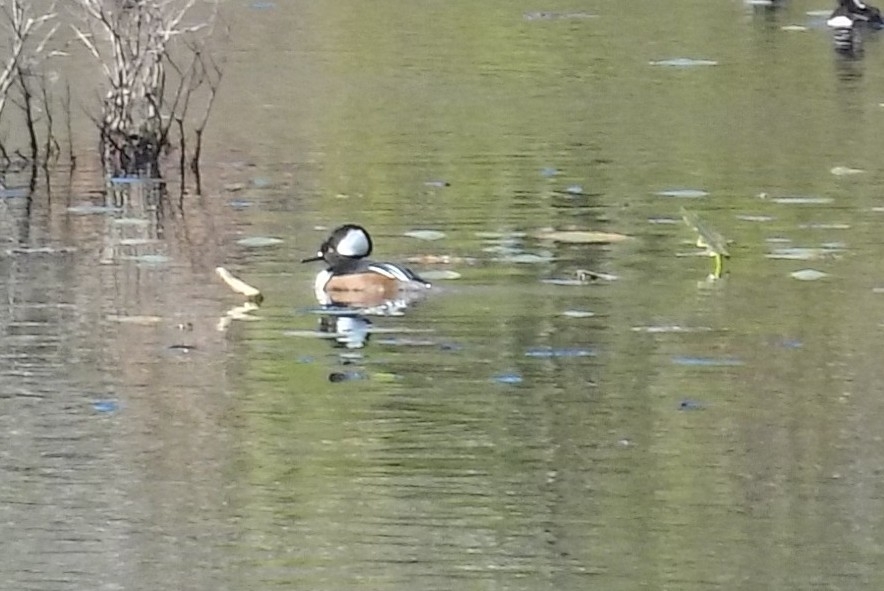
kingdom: Animalia
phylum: Chordata
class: Aves
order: Anseriformes
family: Anatidae
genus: Lophodytes
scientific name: Lophodytes cucullatus
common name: Hooded merganser
